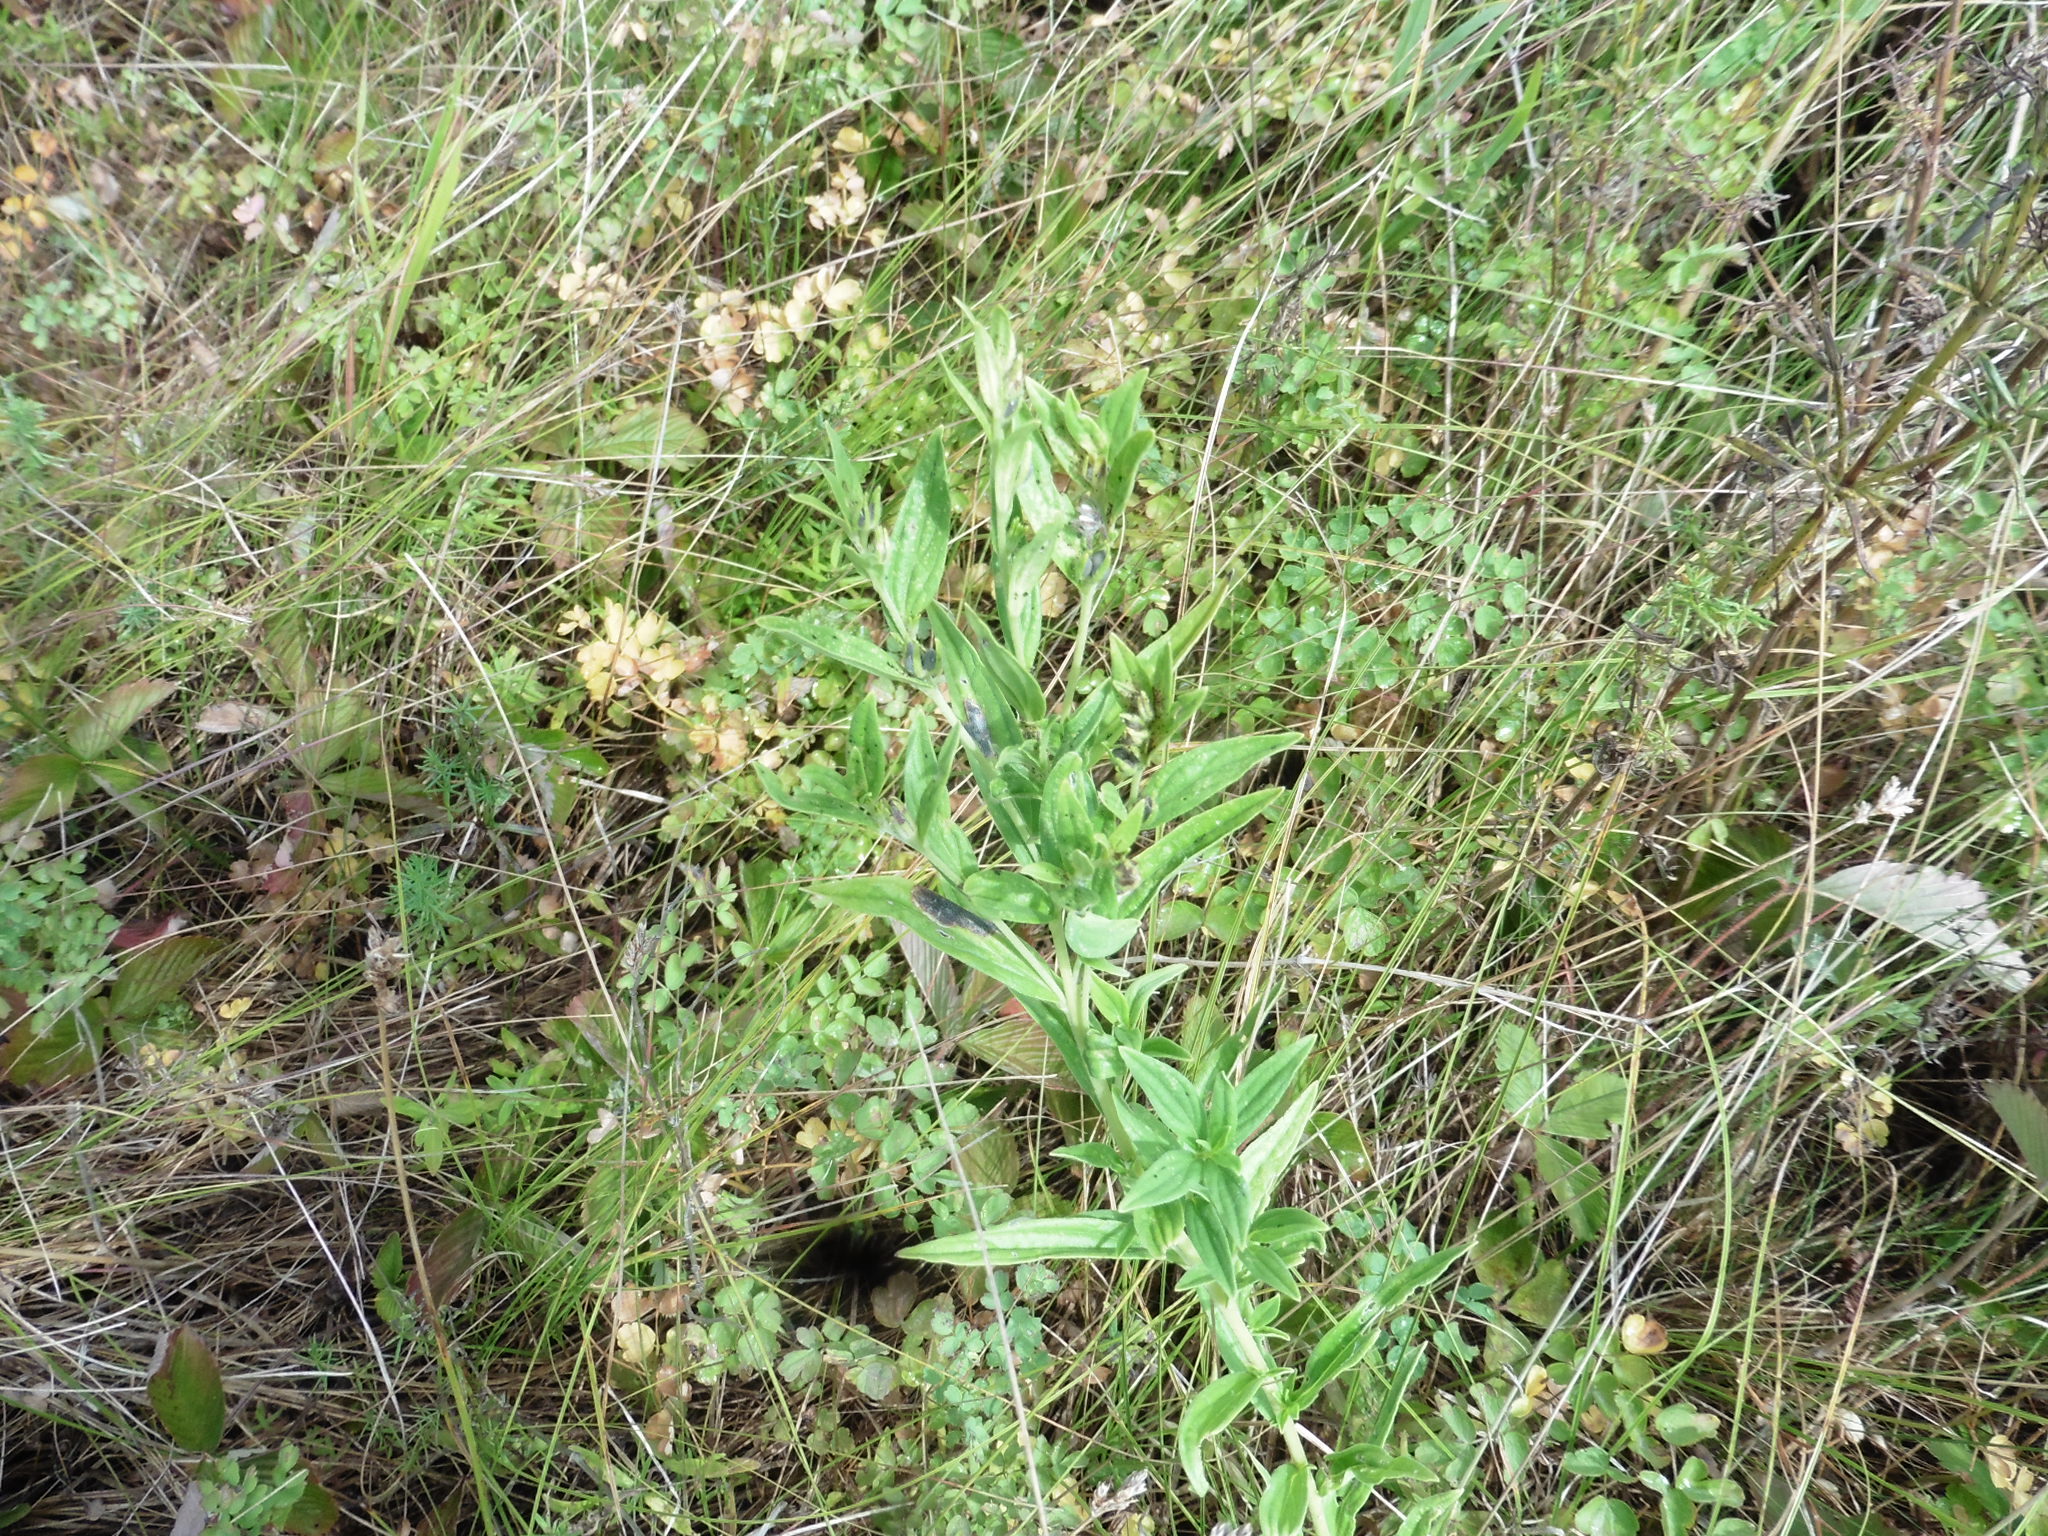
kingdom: Plantae
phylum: Tracheophyta
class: Magnoliopsida
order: Boraginales
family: Boraginaceae
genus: Lithospermum
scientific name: Lithospermum officinale
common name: Common gromwell
